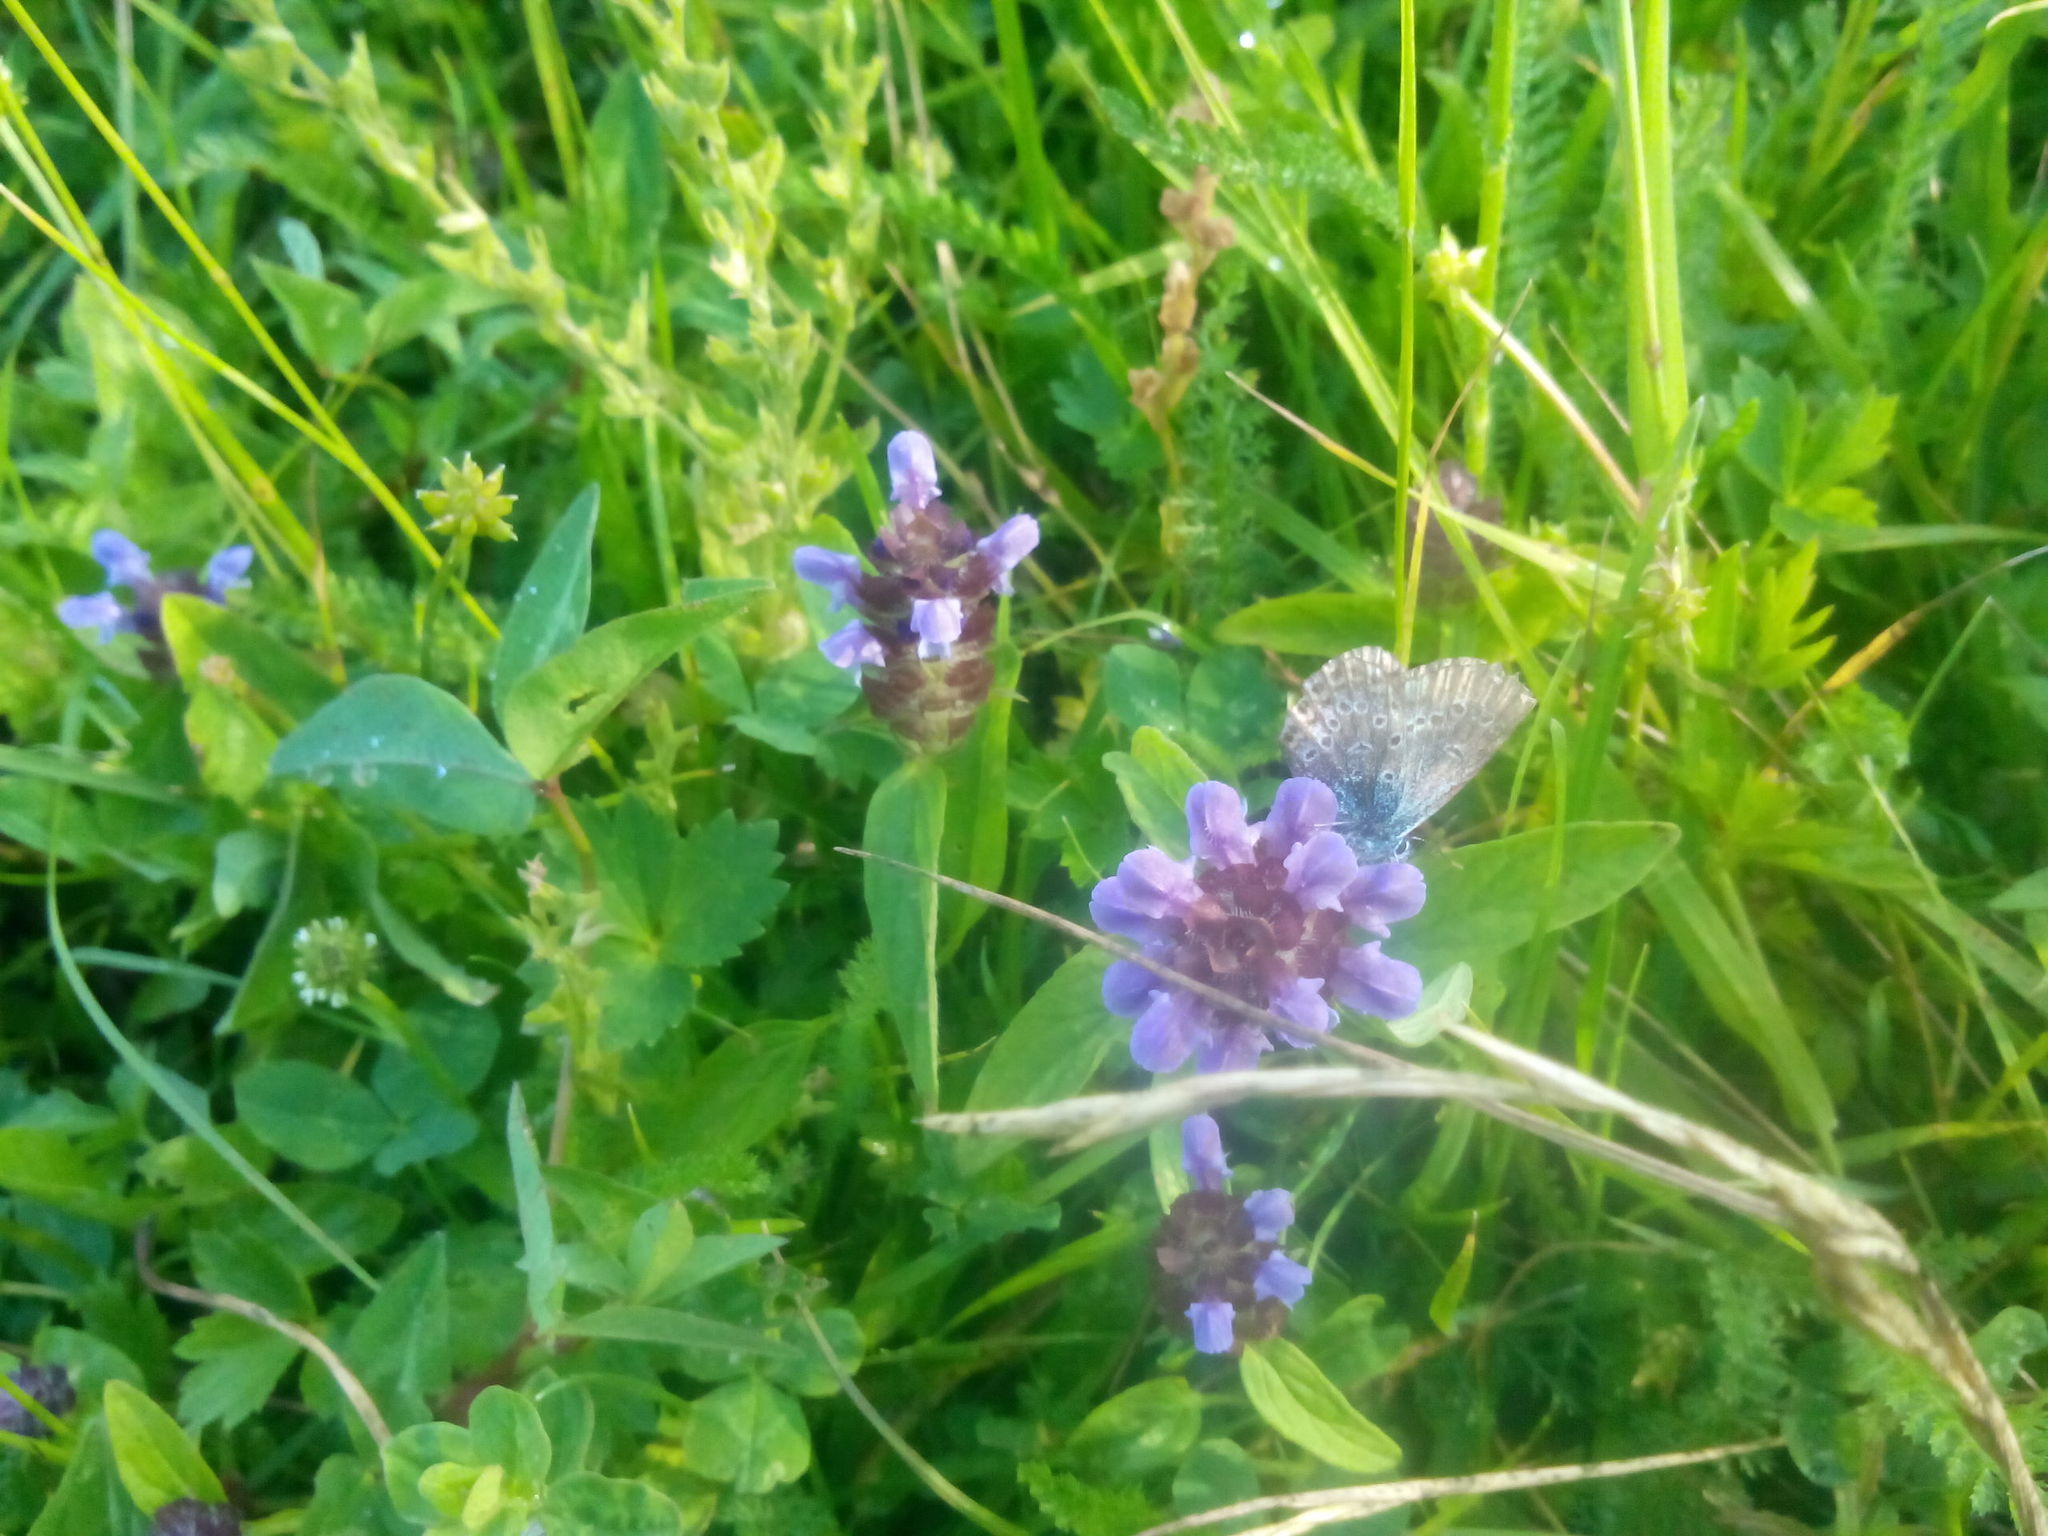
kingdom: Plantae
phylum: Tracheophyta
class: Magnoliopsida
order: Lamiales
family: Lamiaceae
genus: Prunella
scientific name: Prunella vulgaris
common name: Heal-all
